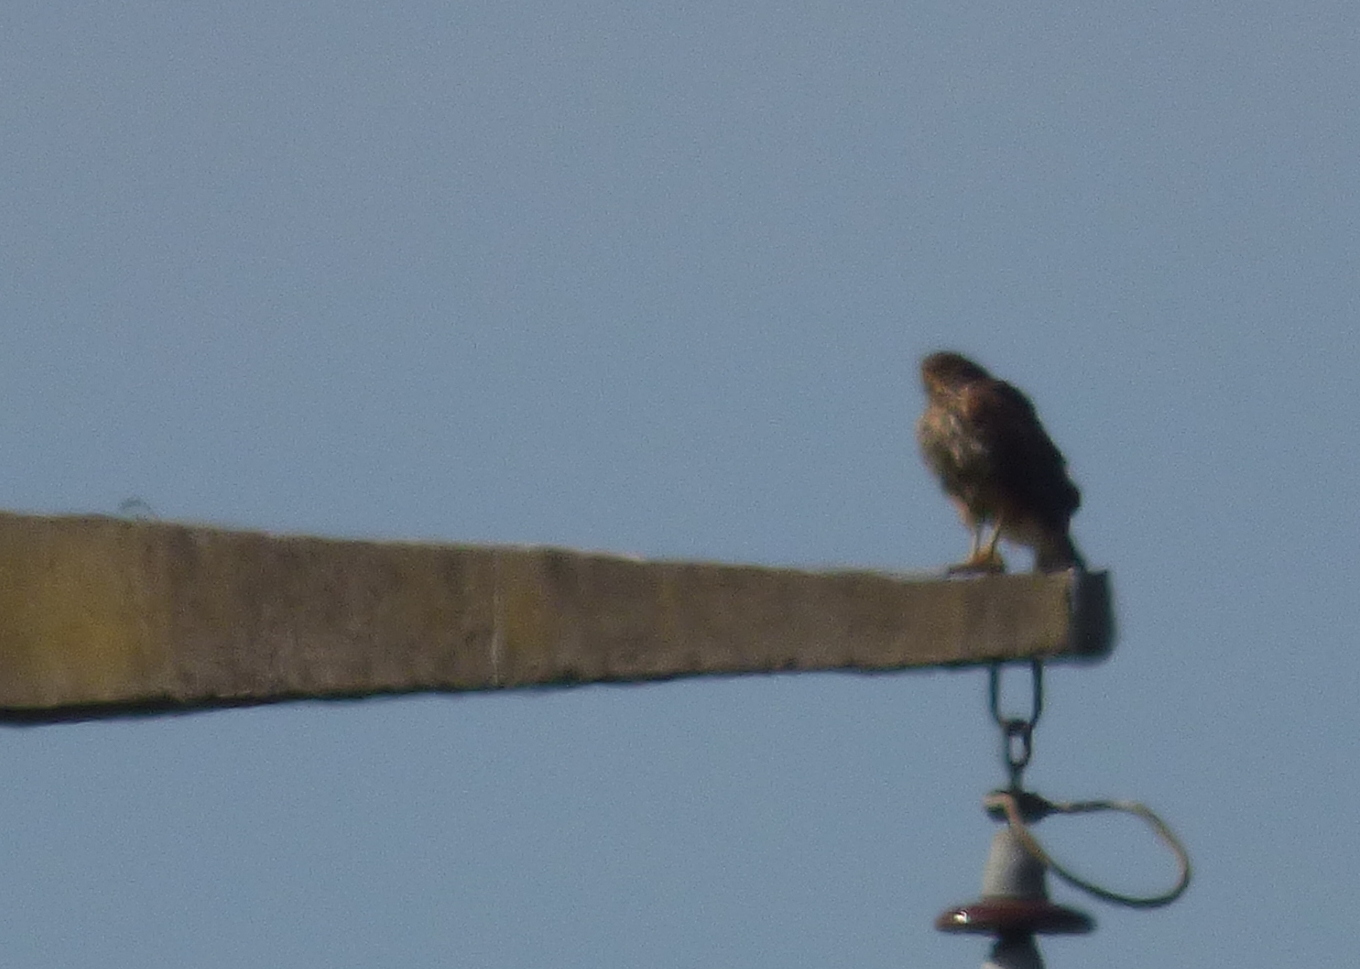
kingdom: Animalia
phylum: Chordata
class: Aves
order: Accipitriformes
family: Accipitridae
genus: Parabuteo
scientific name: Parabuteo unicinctus
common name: Harris's hawk
